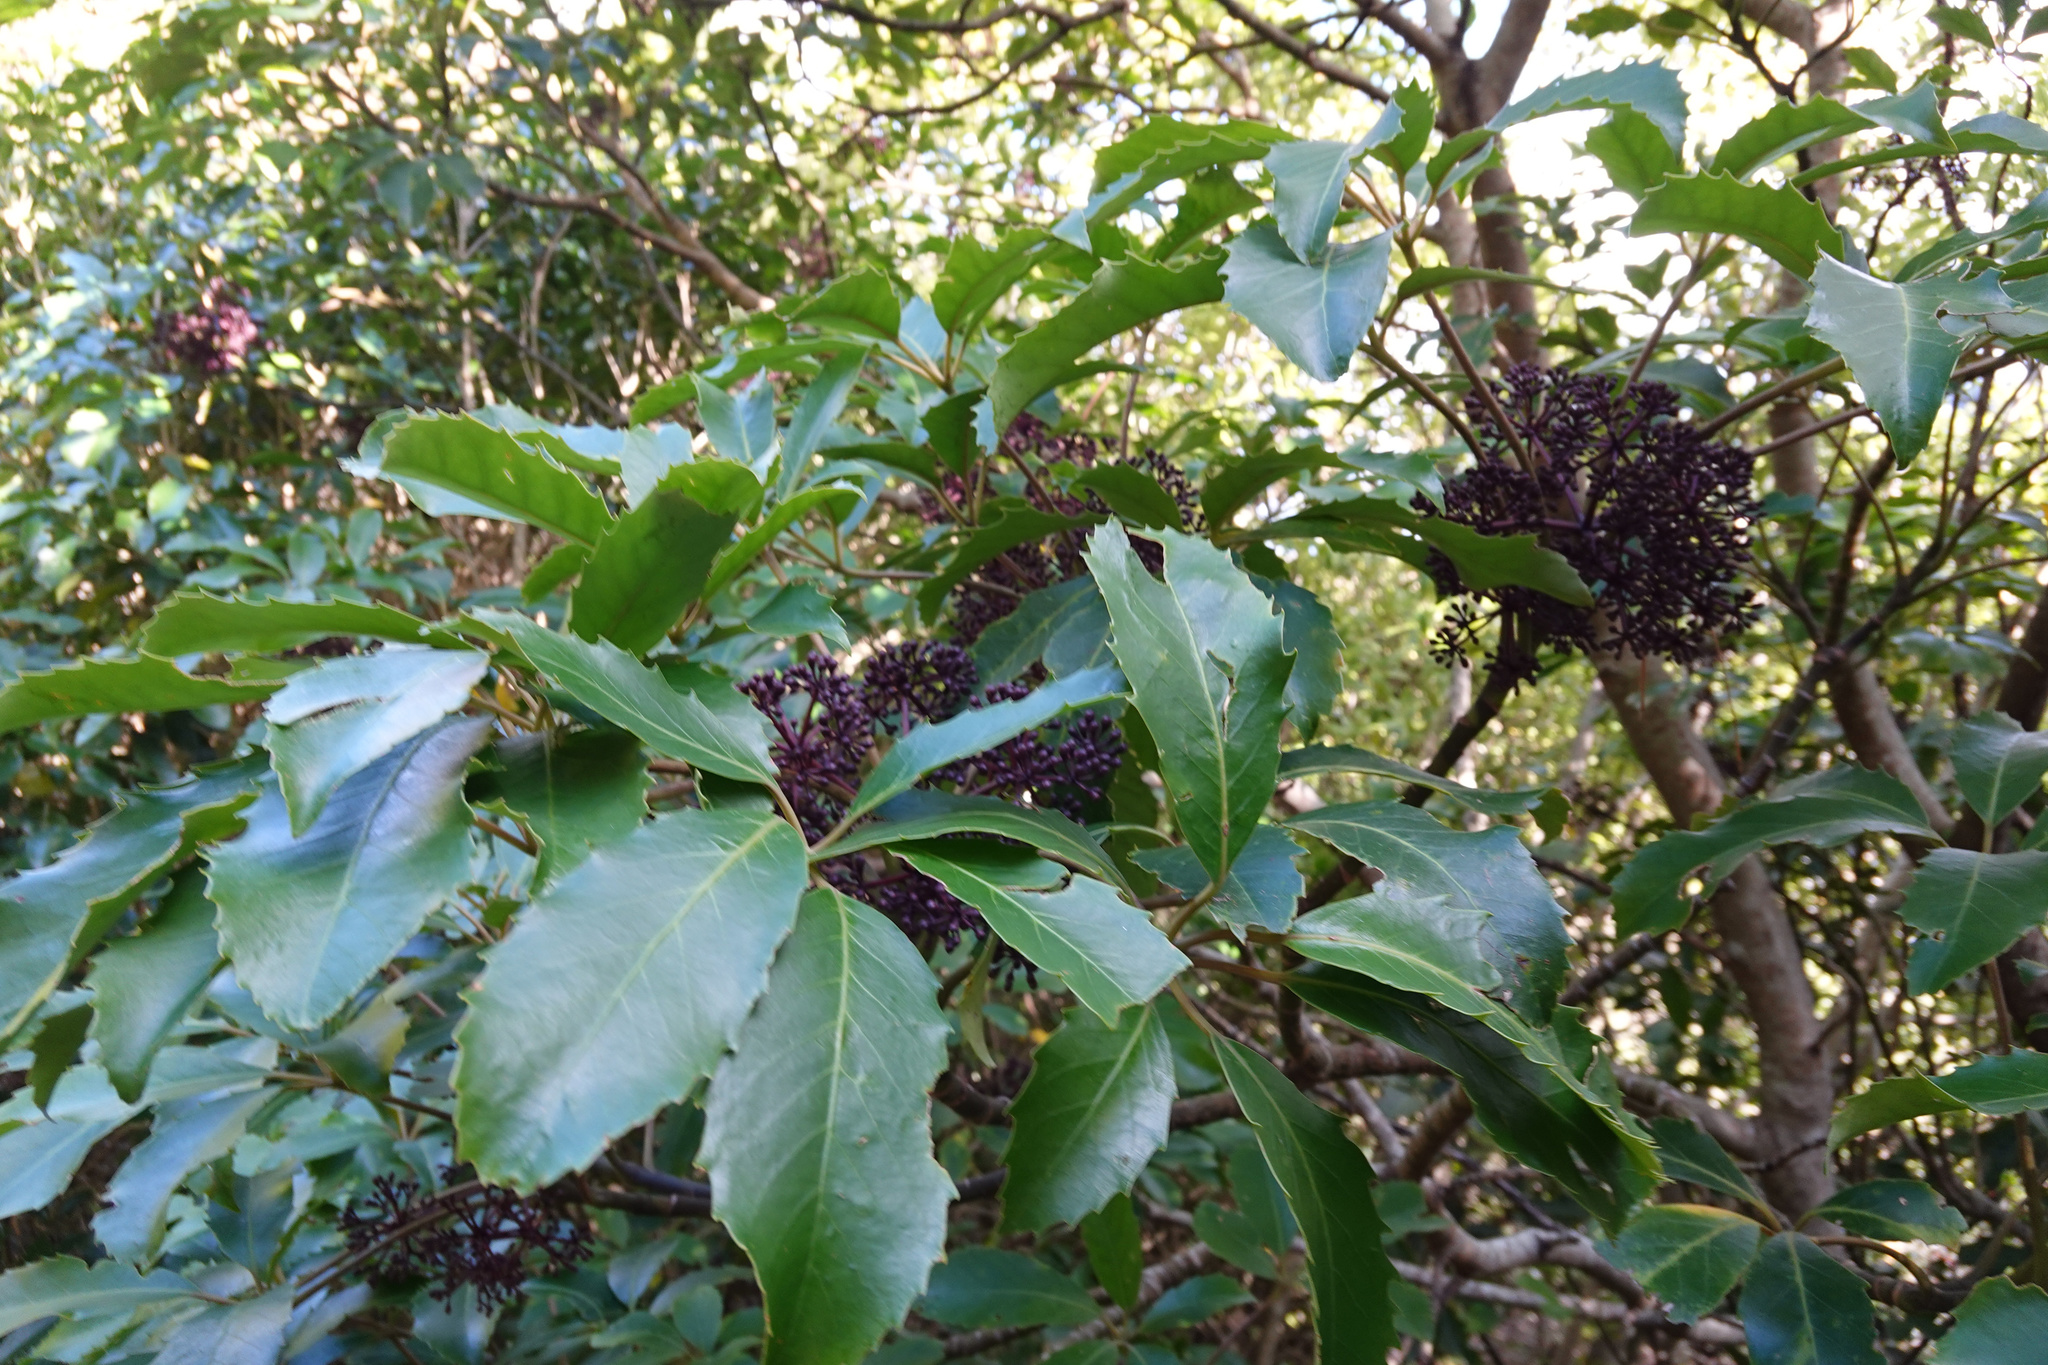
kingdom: Plantae
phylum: Tracheophyta
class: Magnoliopsida
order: Apiales
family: Araliaceae
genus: Neopanax
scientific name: Neopanax arboreus
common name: Five-fingers
